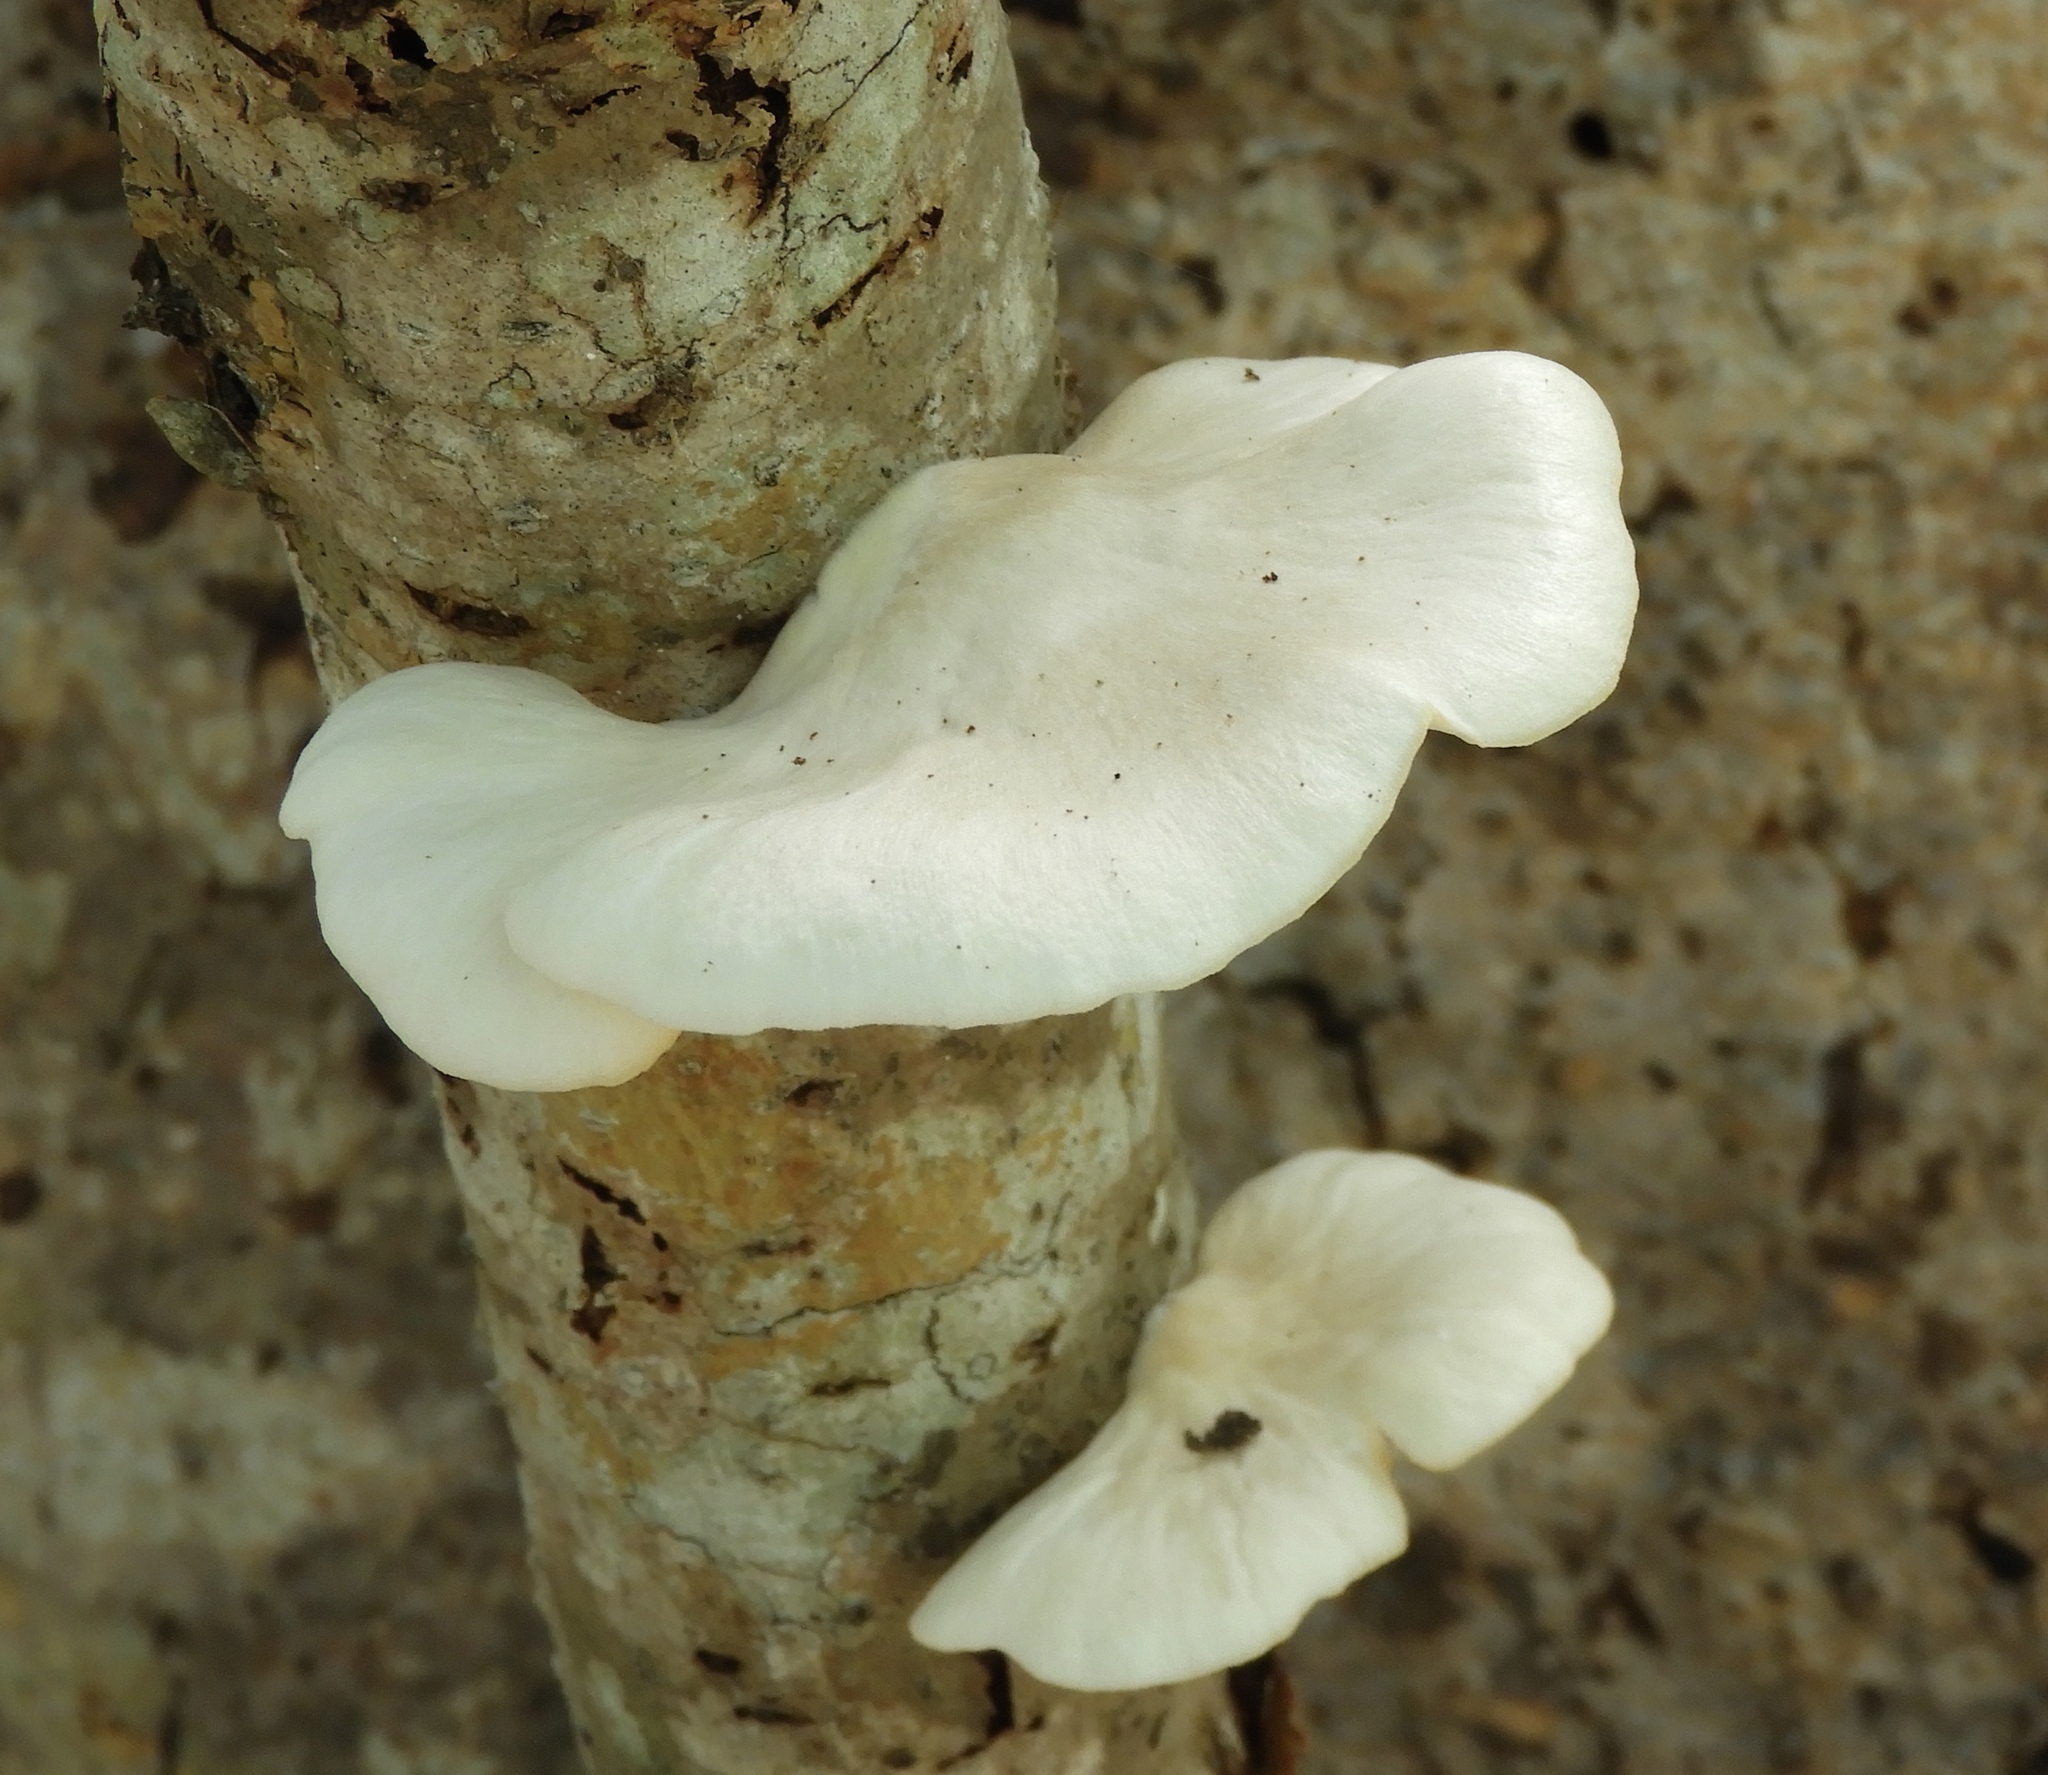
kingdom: Fungi
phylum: Basidiomycota
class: Agaricomycetes
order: Agaricales
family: Pleurotaceae
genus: Pleurotus
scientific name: Pleurotus
